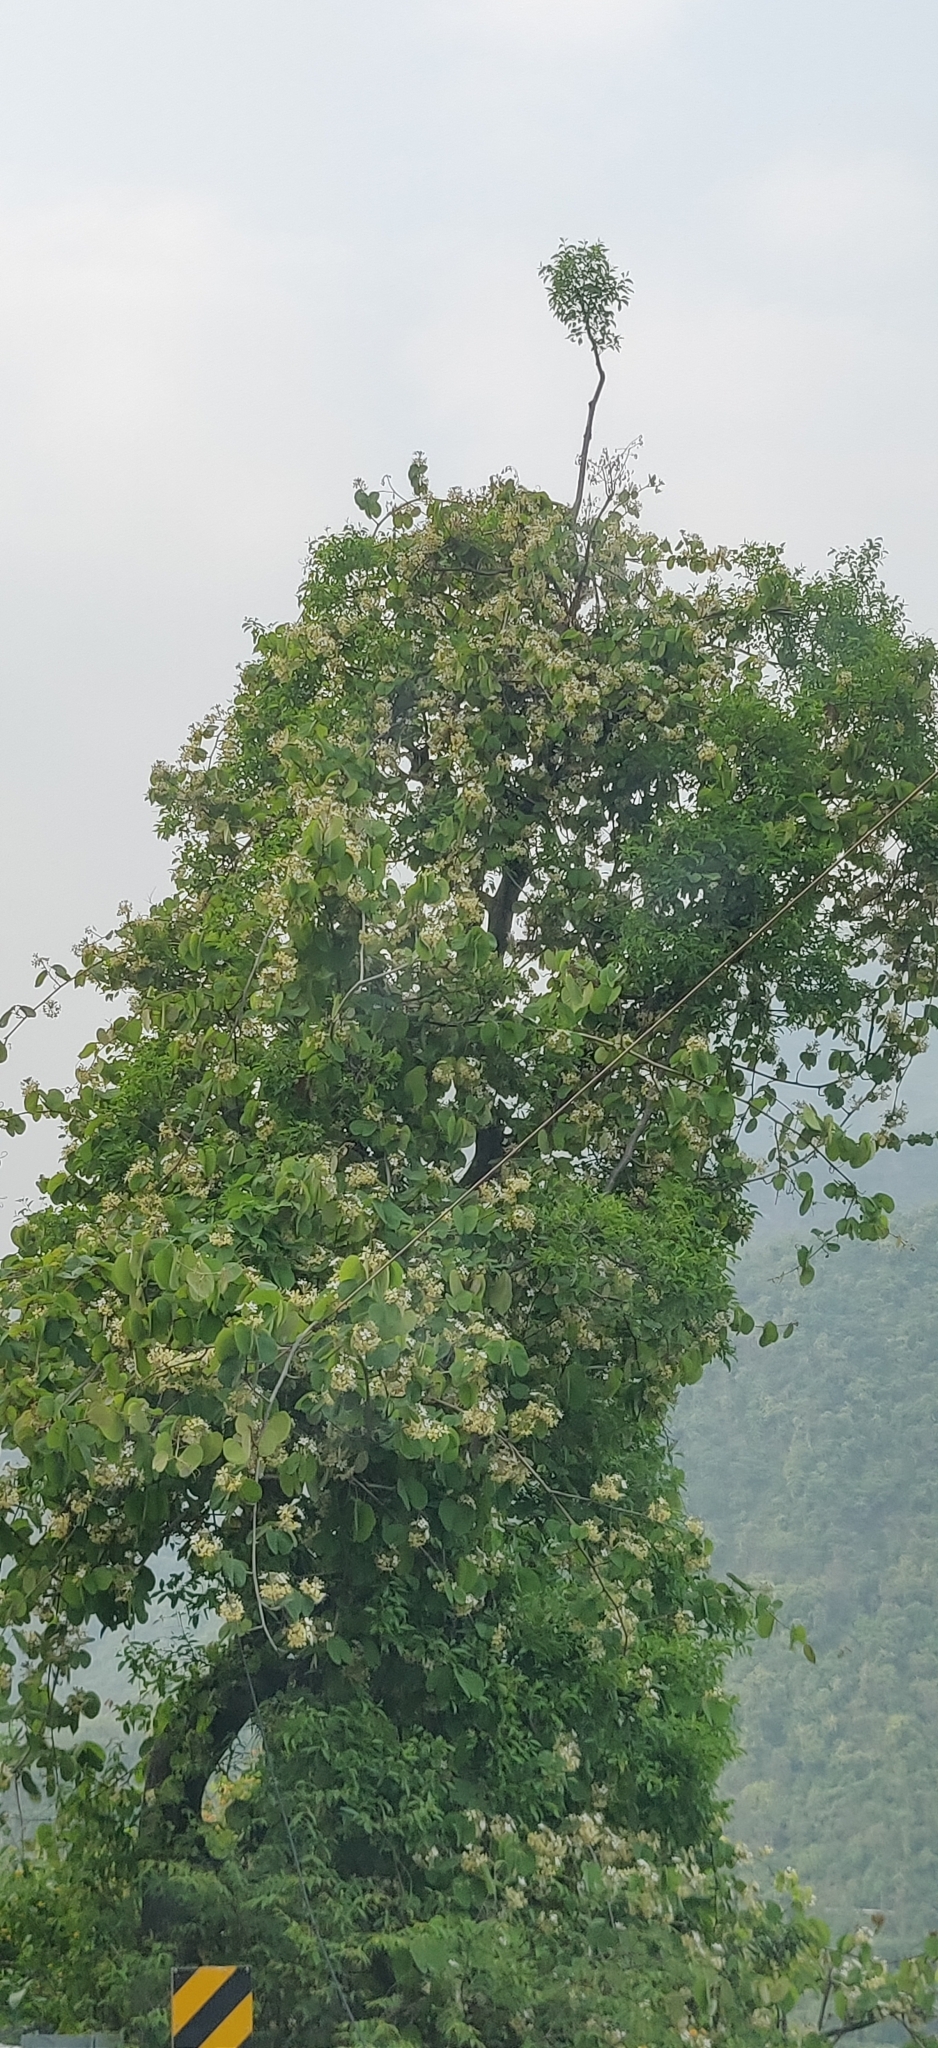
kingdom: Plantae
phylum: Tracheophyta
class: Magnoliopsida
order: Fabales
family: Fabaceae
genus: Phanera
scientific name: Phanera vahlii
